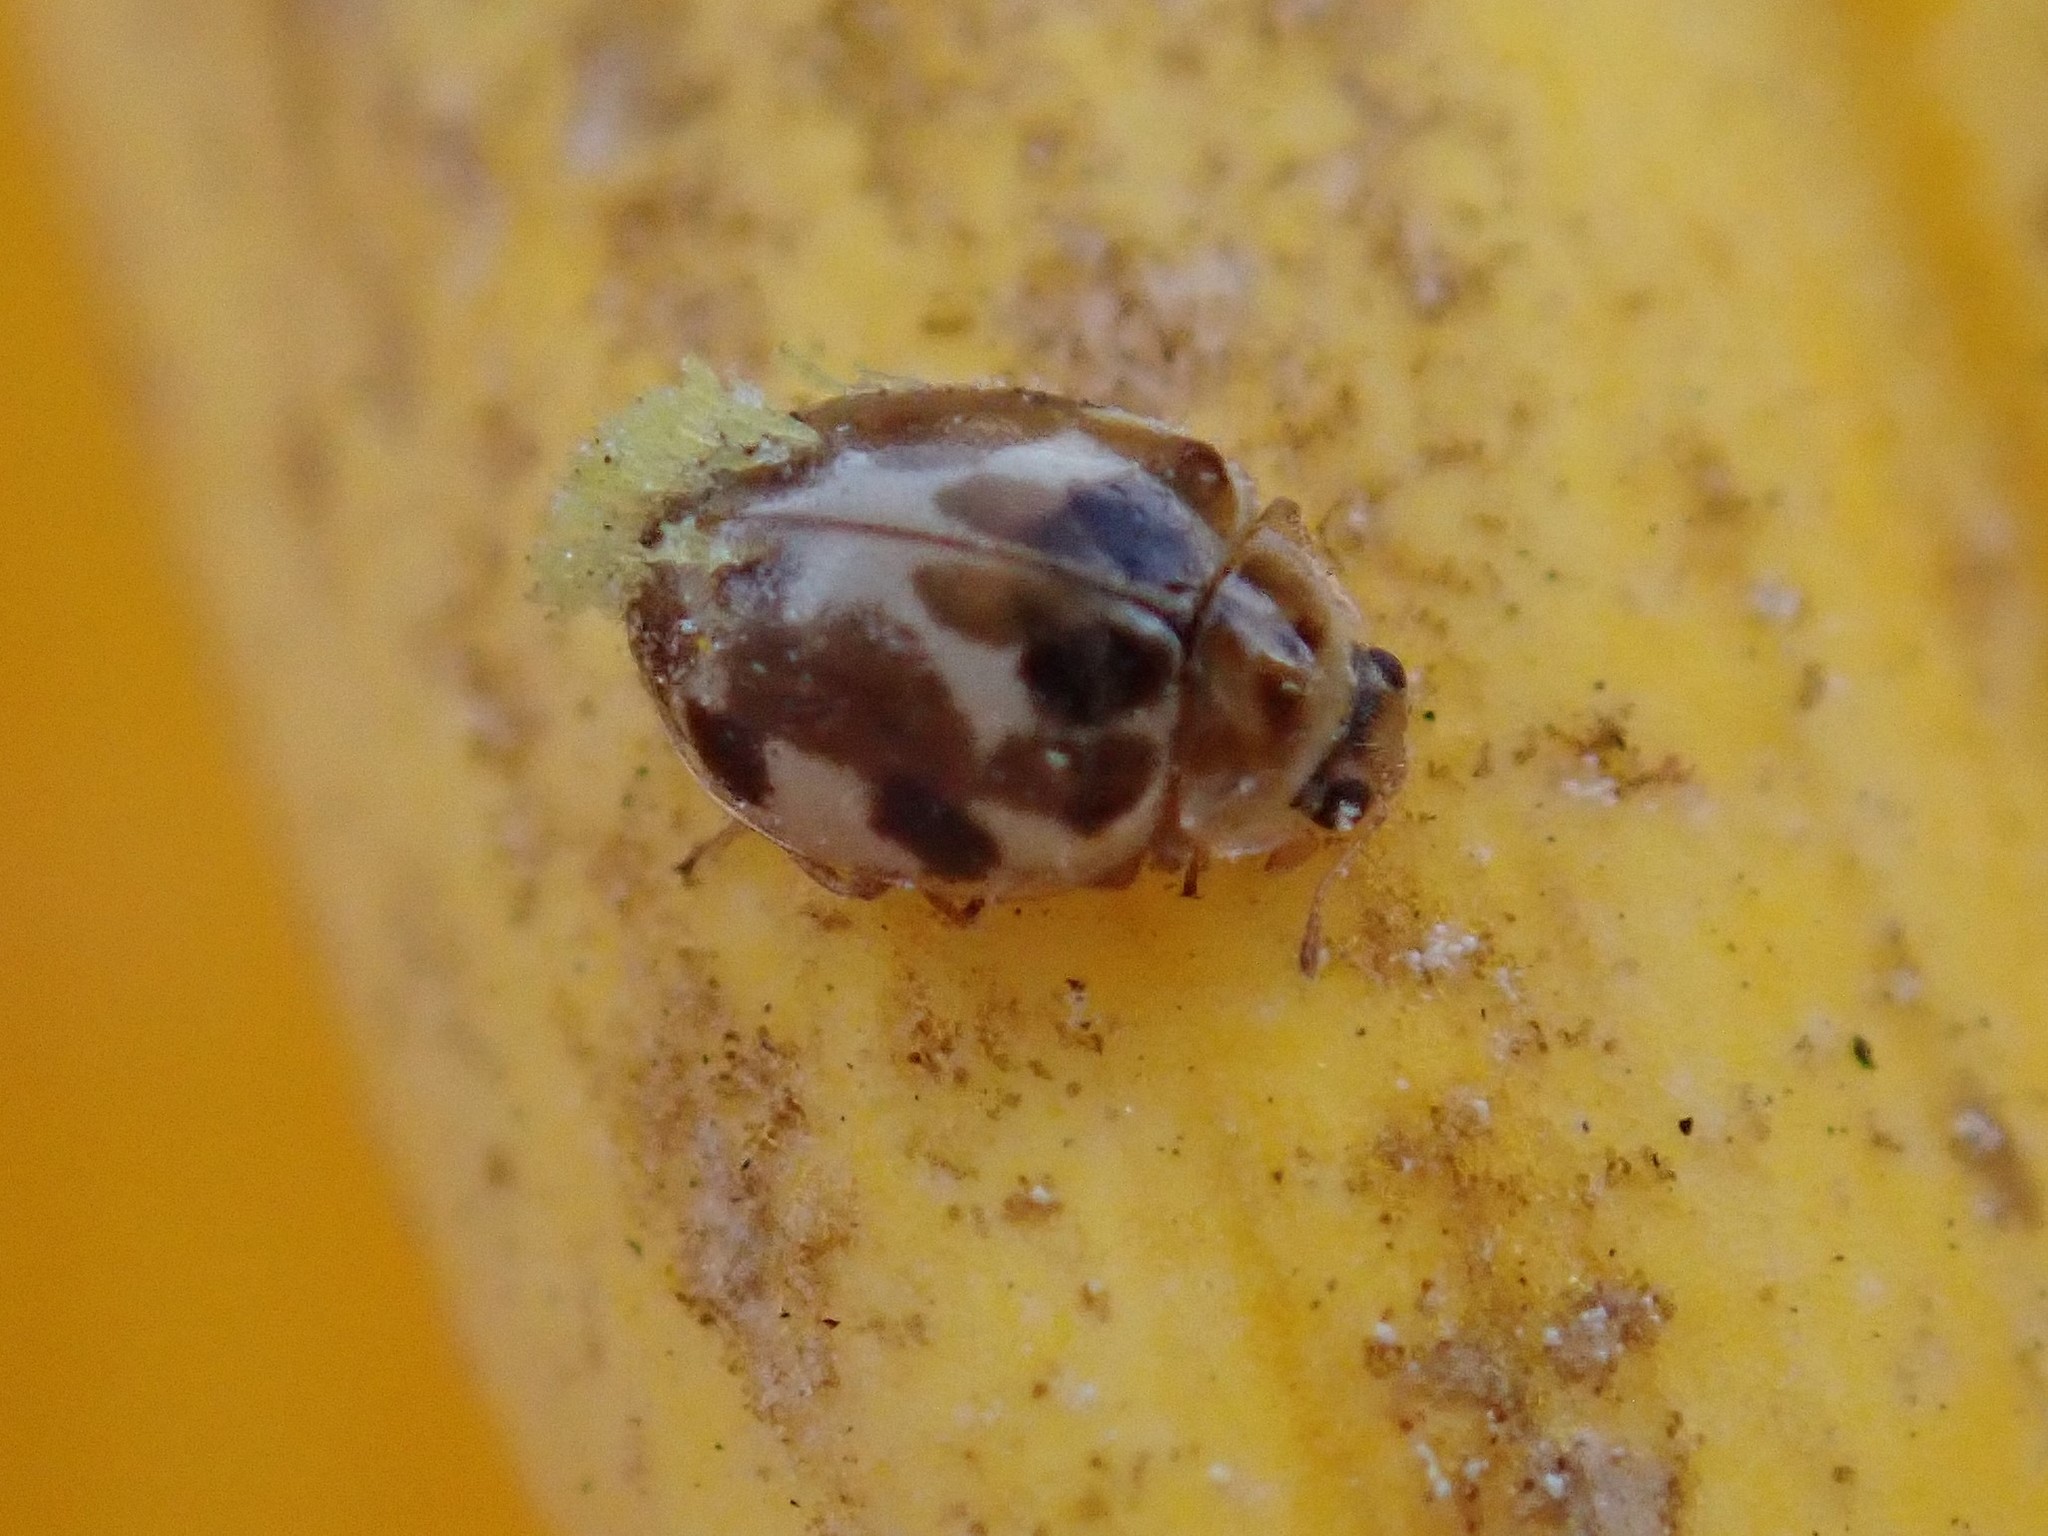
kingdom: Animalia
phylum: Arthropoda
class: Insecta
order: Coleoptera
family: Coccinellidae
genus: Psyllobora
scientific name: Psyllobora vigintimaculata
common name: Ladybird beetle
